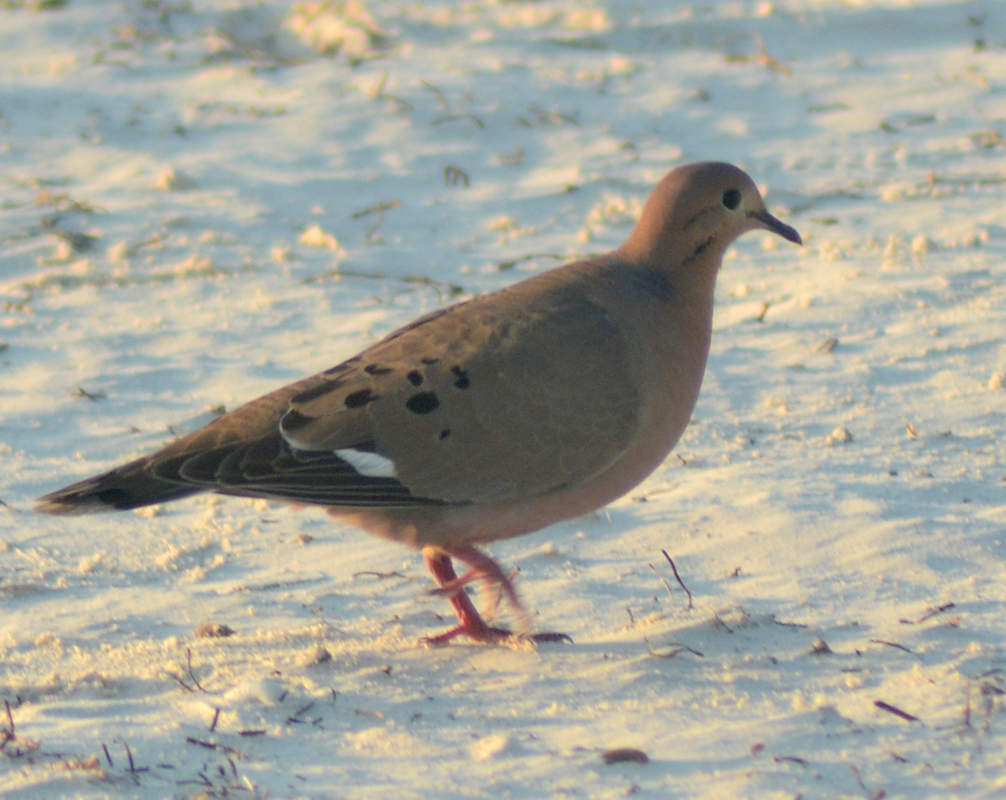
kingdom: Animalia
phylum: Chordata
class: Aves
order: Columbiformes
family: Columbidae
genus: Zenaida
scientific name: Zenaida aurita
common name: Zenaida dove
